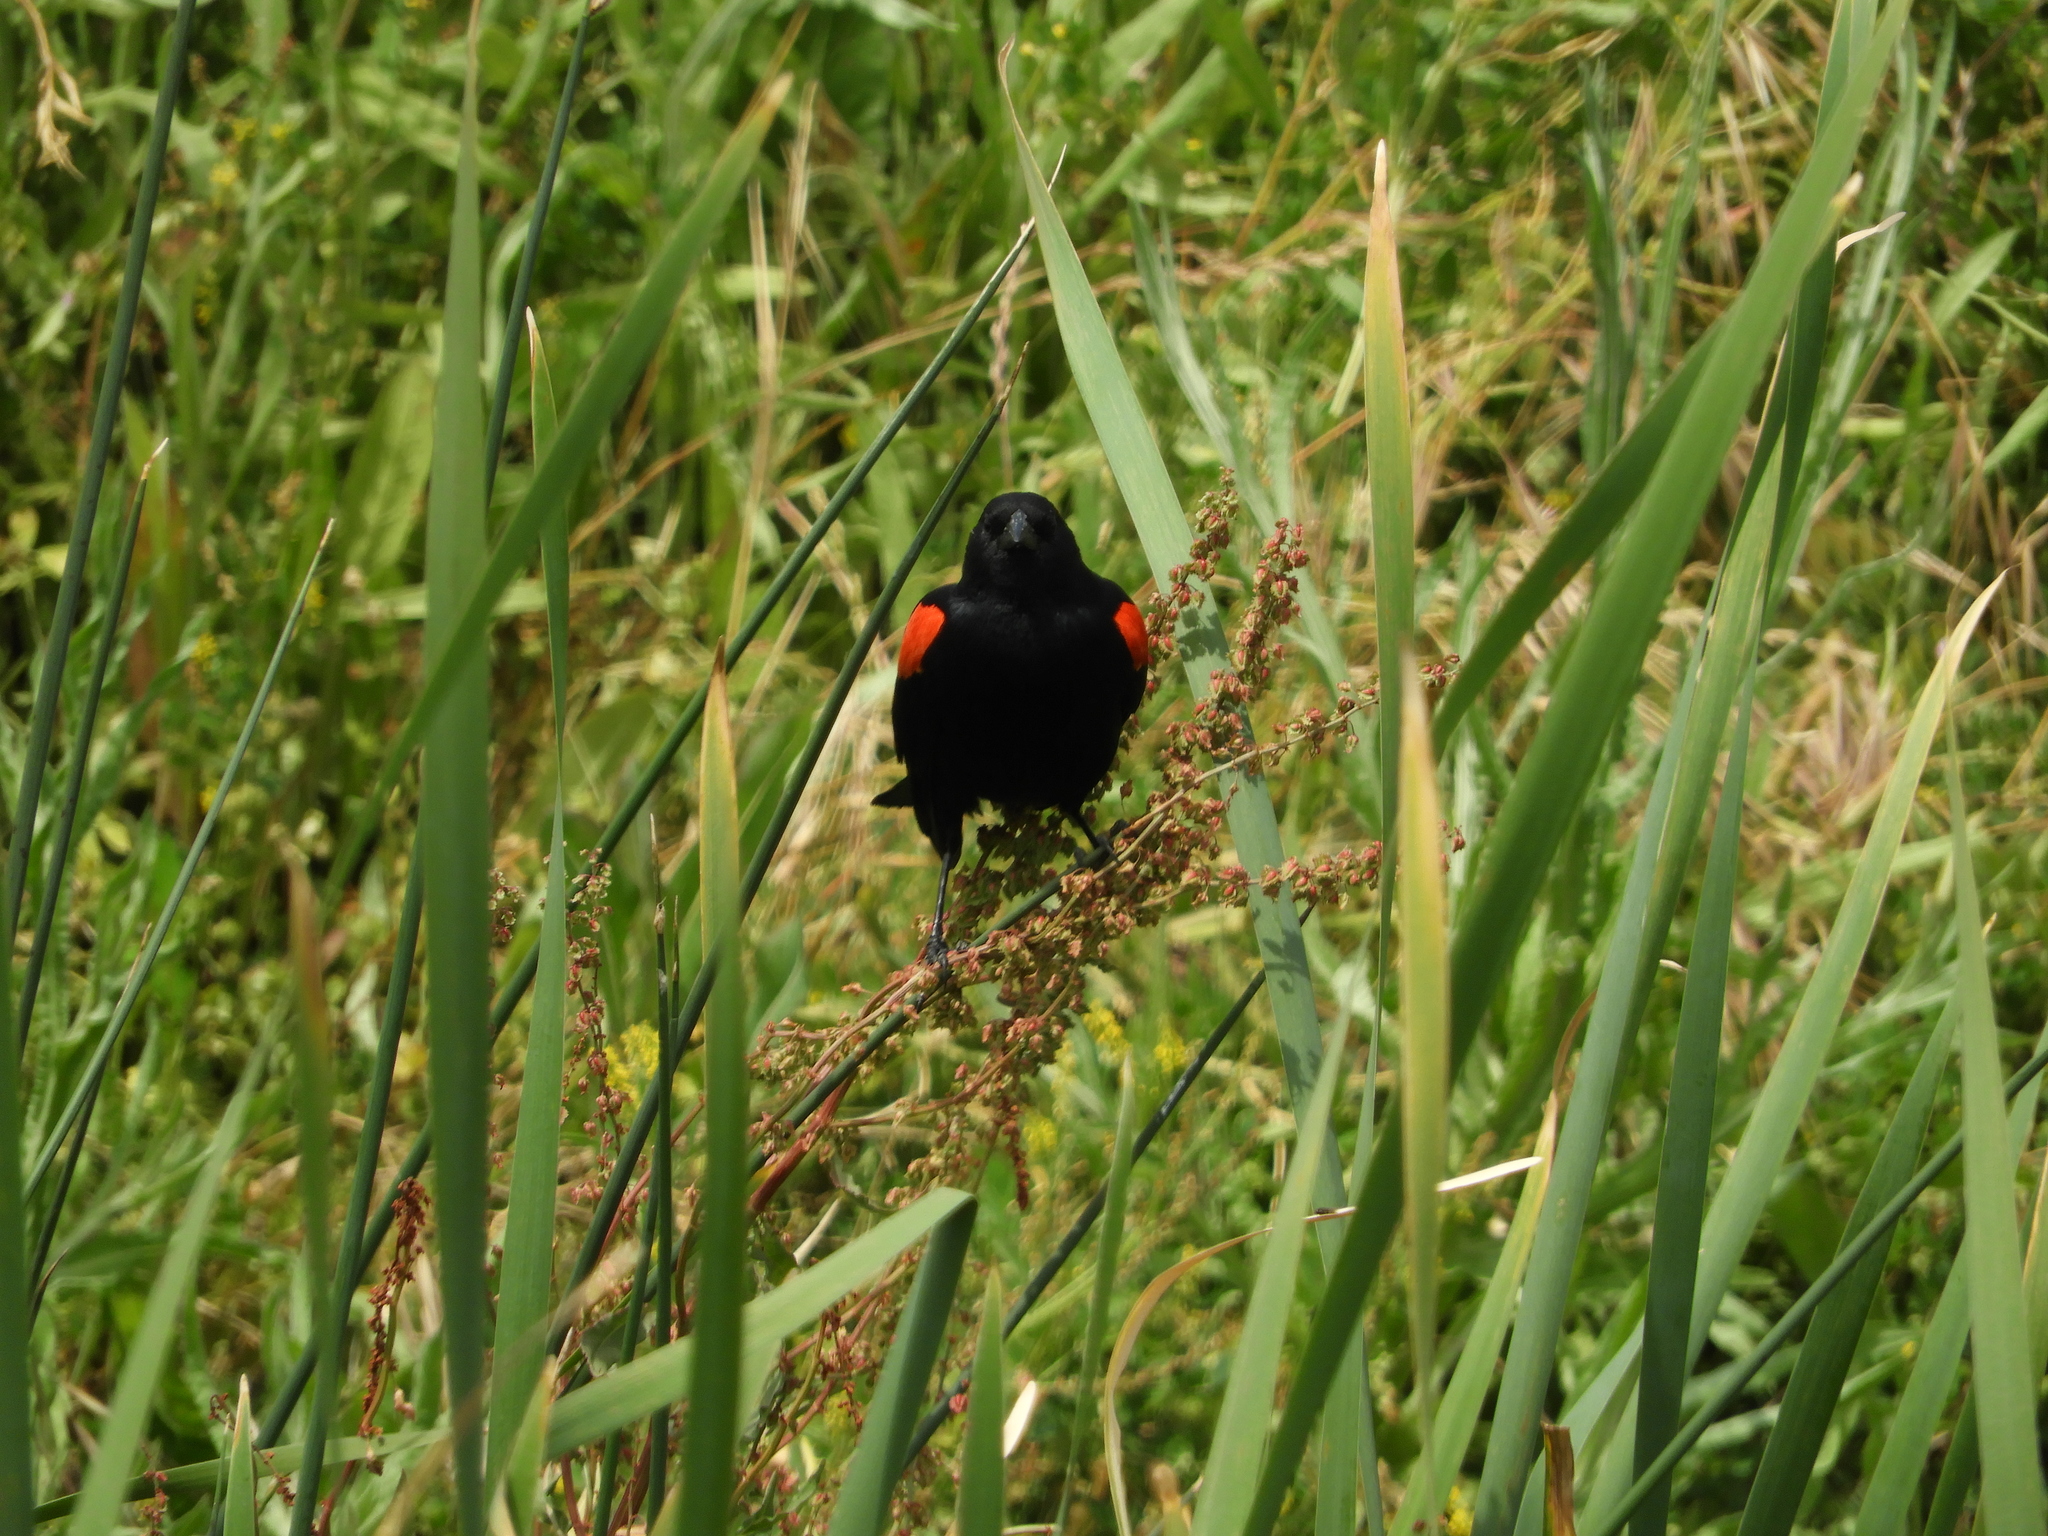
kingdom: Animalia
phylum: Chordata
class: Aves
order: Passeriformes
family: Icteridae
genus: Agelaius
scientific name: Agelaius phoeniceus
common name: Red-winged blackbird
